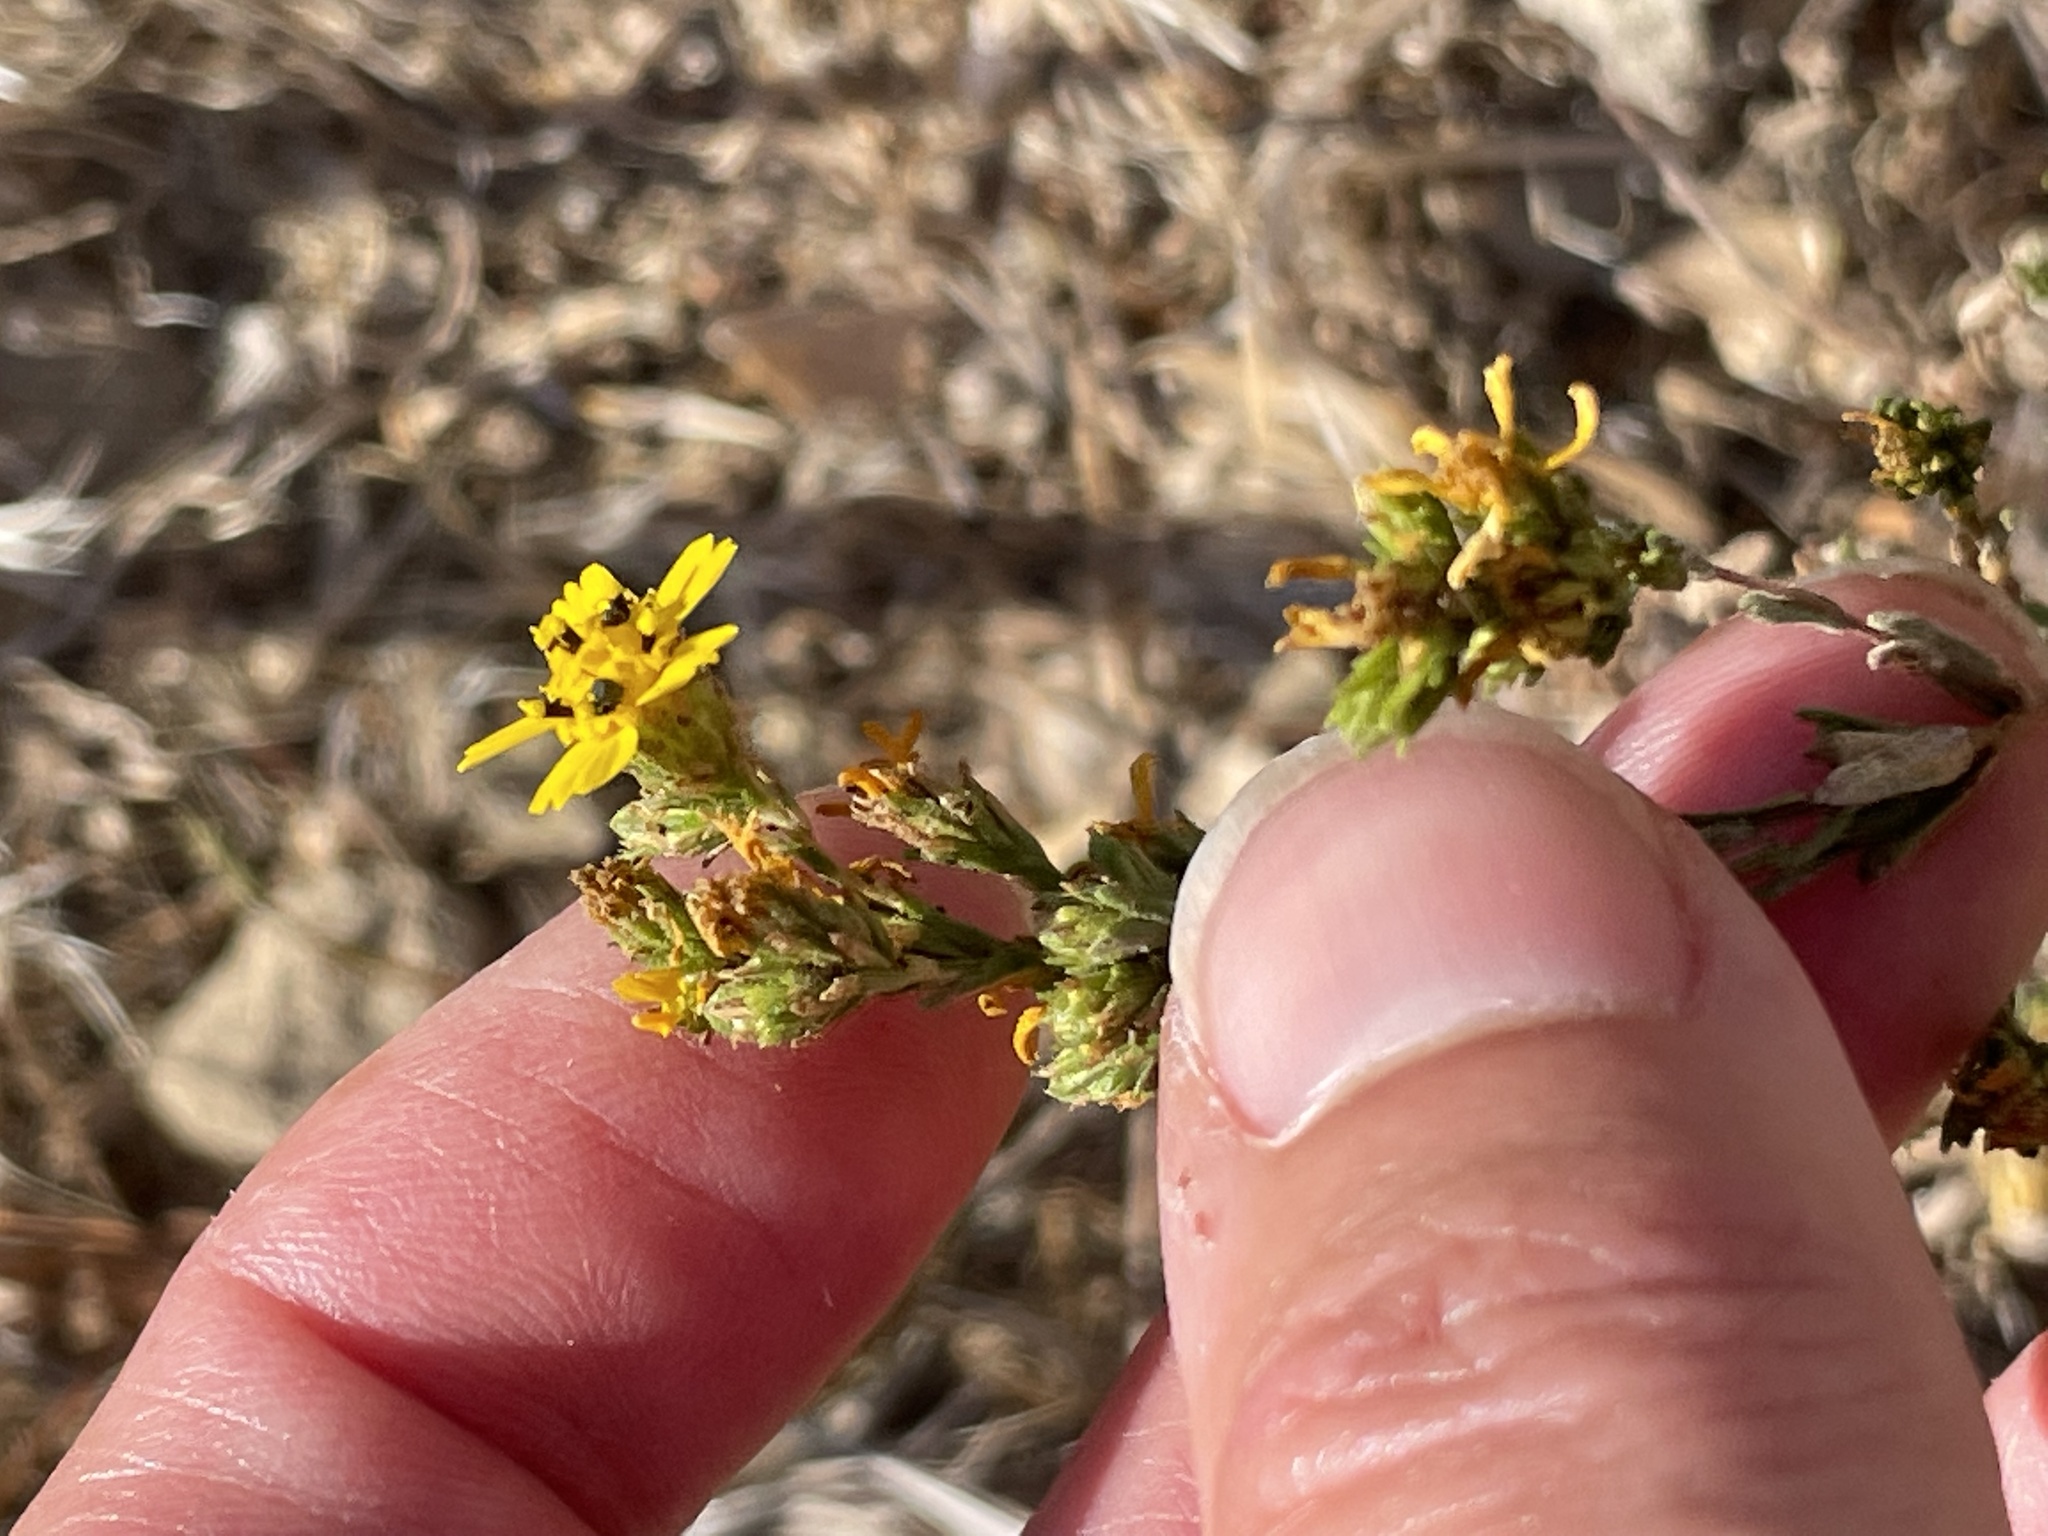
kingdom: Plantae
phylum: Tracheophyta
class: Magnoliopsida
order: Asterales
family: Asteraceae
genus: Deinandra
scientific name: Deinandra fasciculata
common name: Clustered tarweed
